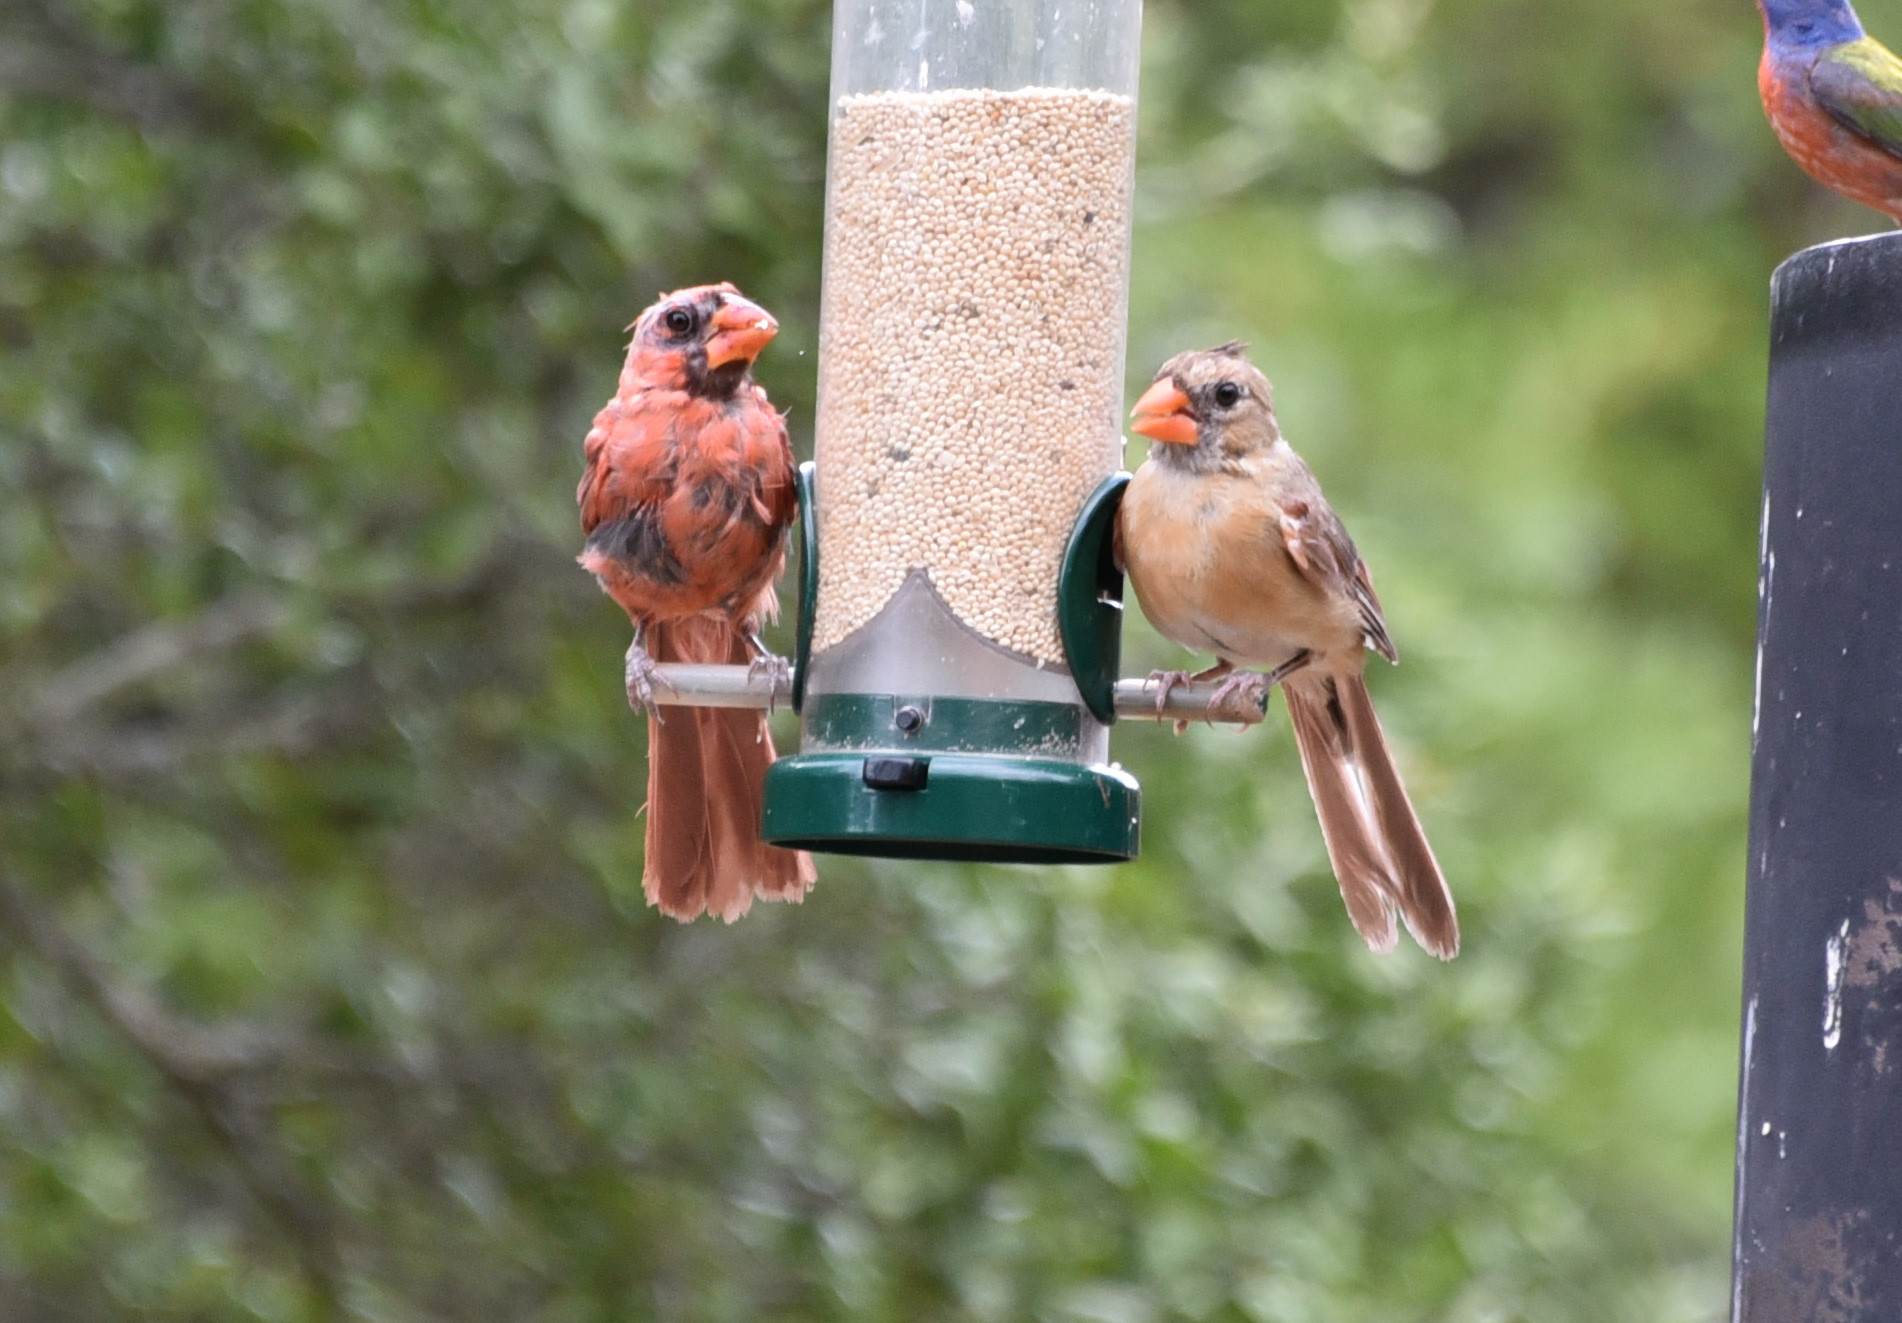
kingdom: Animalia
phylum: Chordata
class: Aves
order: Passeriformes
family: Cardinalidae
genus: Cardinalis
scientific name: Cardinalis cardinalis
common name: Northern cardinal
